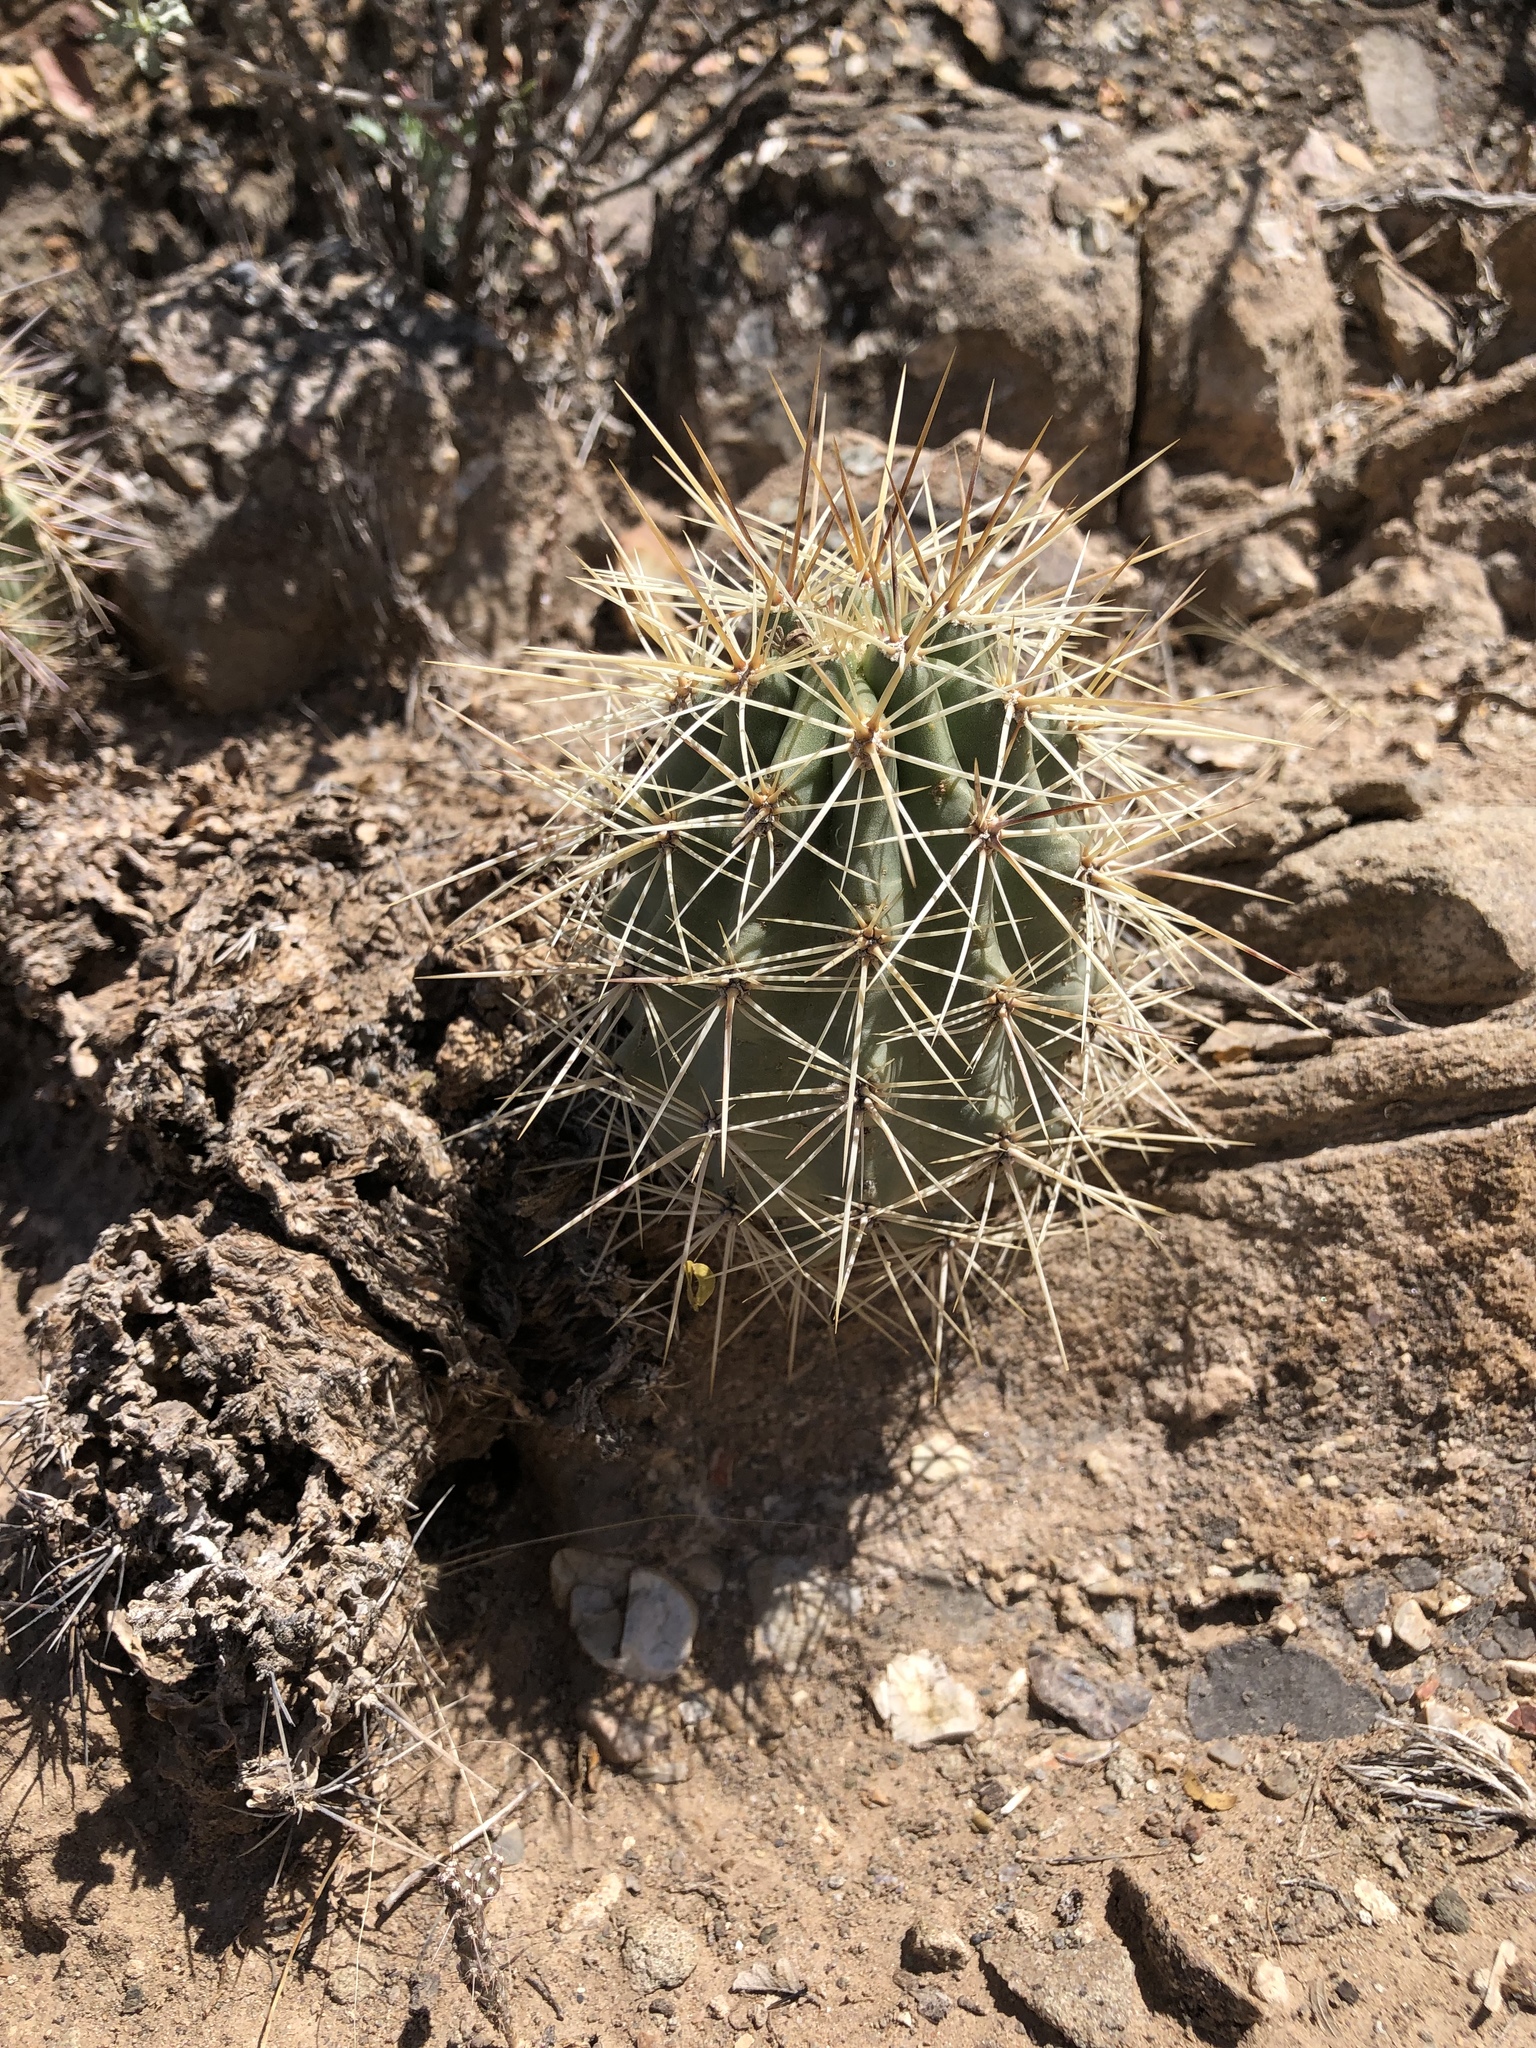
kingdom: Plantae
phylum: Tracheophyta
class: Magnoliopsida
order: Caryophyllales
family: Cactaceae
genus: Echinocereus
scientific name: Echinocereus coccineus
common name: Scarlet hedgehog cactus
